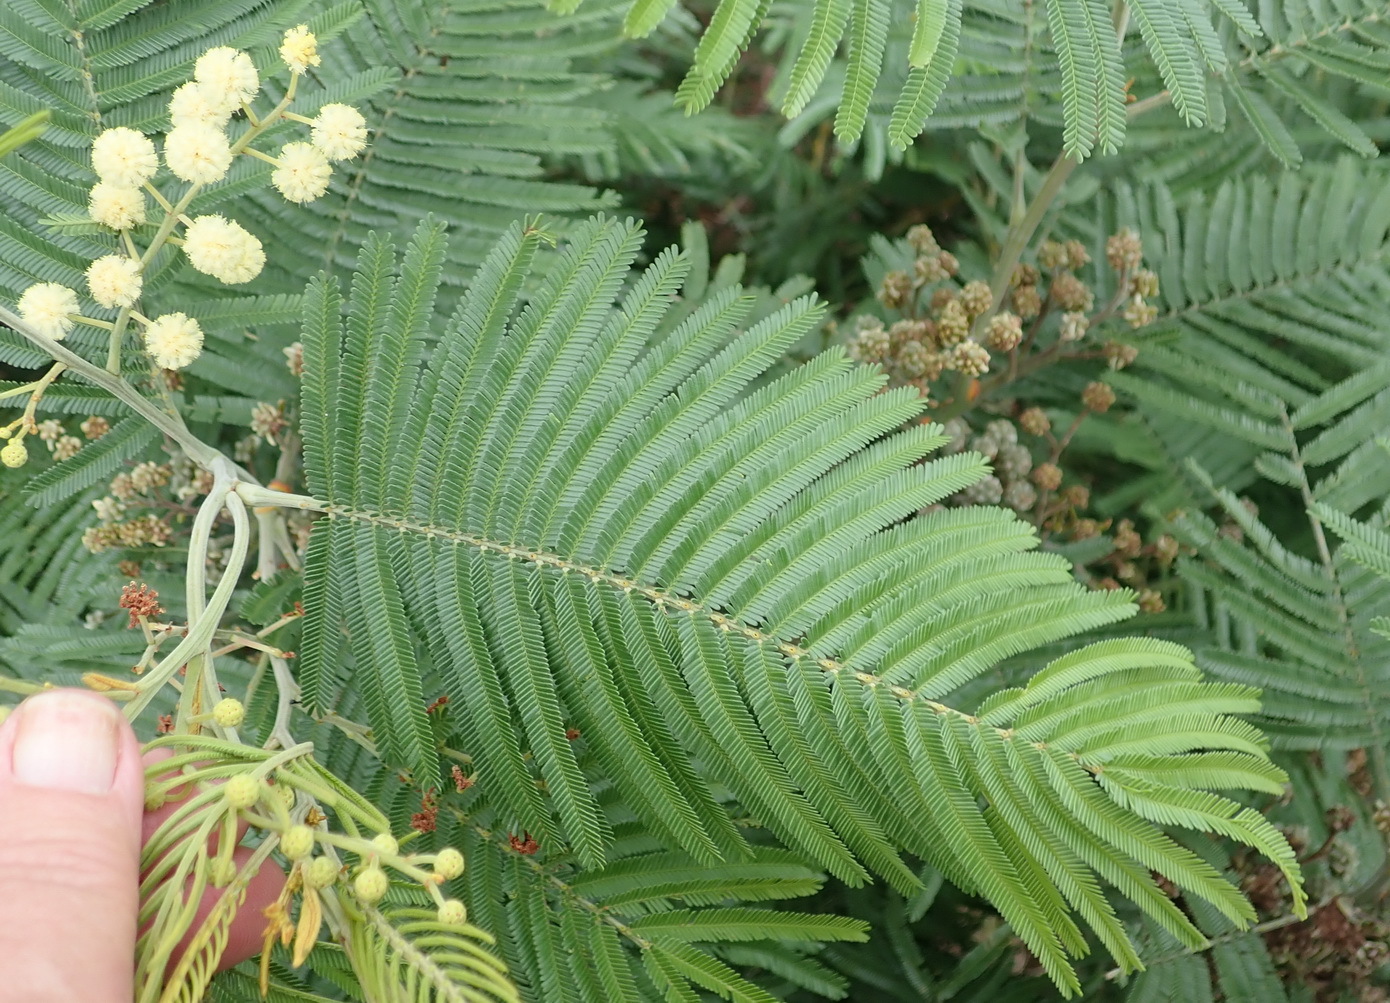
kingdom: Plantae
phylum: Tracheophyta
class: Magnoliopsida
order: Fabales
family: Fabaceae
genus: Acacia
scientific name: Acacia mearnsii
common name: Black wattle
